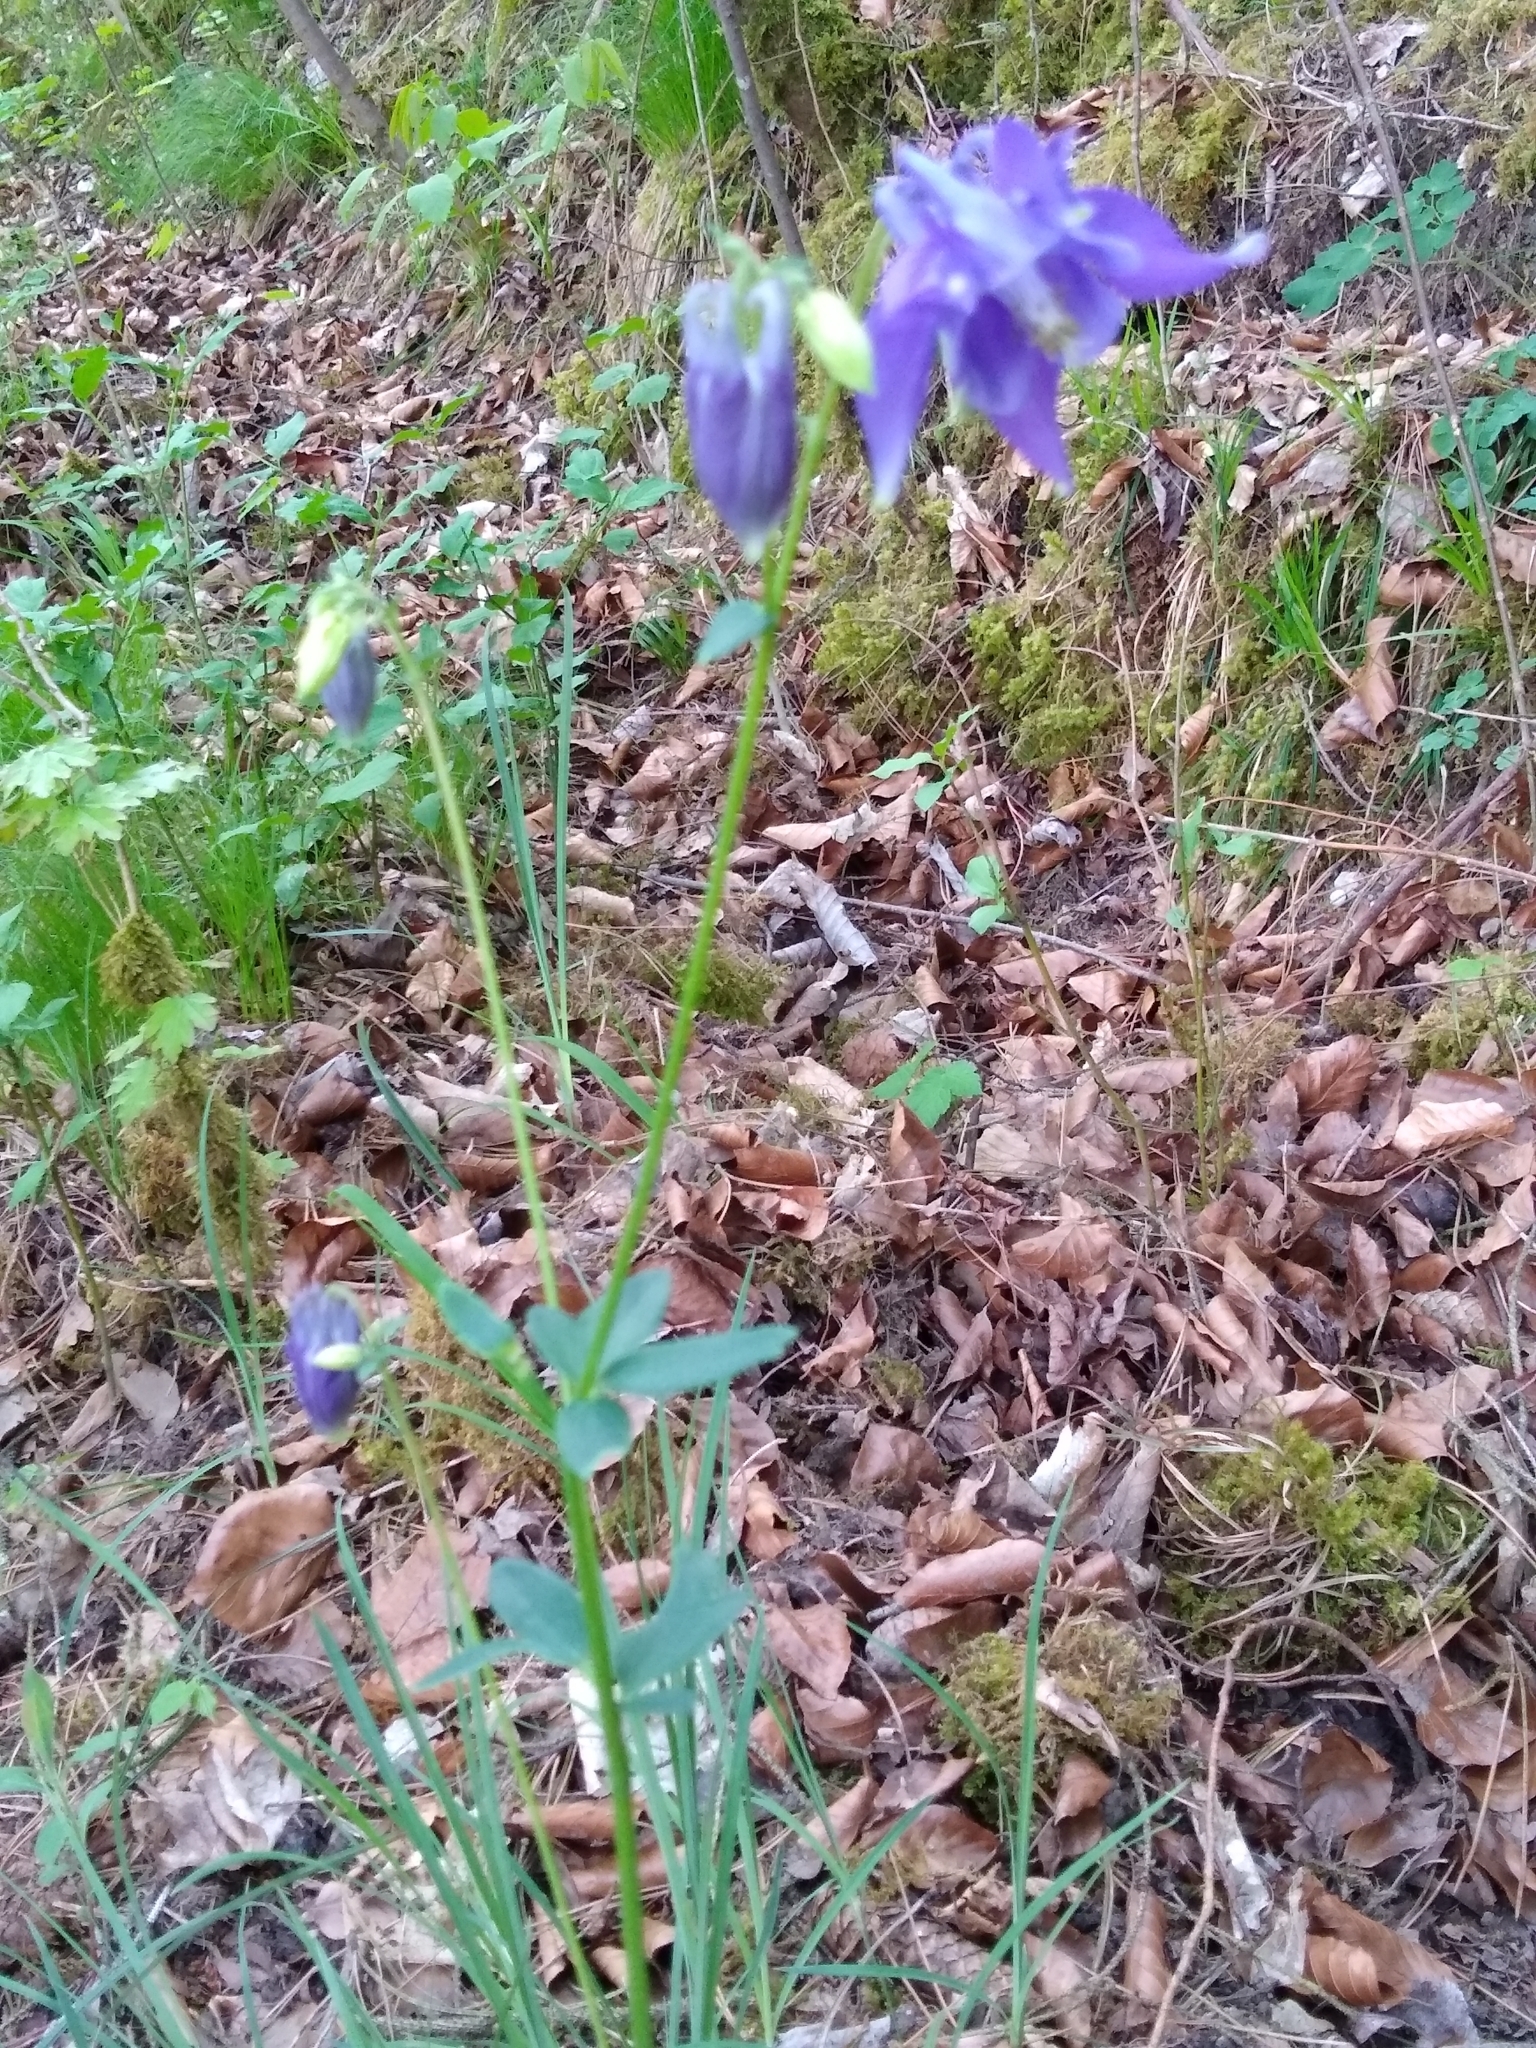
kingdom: Plantae
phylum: Tracheophyta
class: Magnoliopsida
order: Ranunculales
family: Ranunculaceae
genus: Aquilegia
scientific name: Aquilegia vulgaris
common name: Columbine
